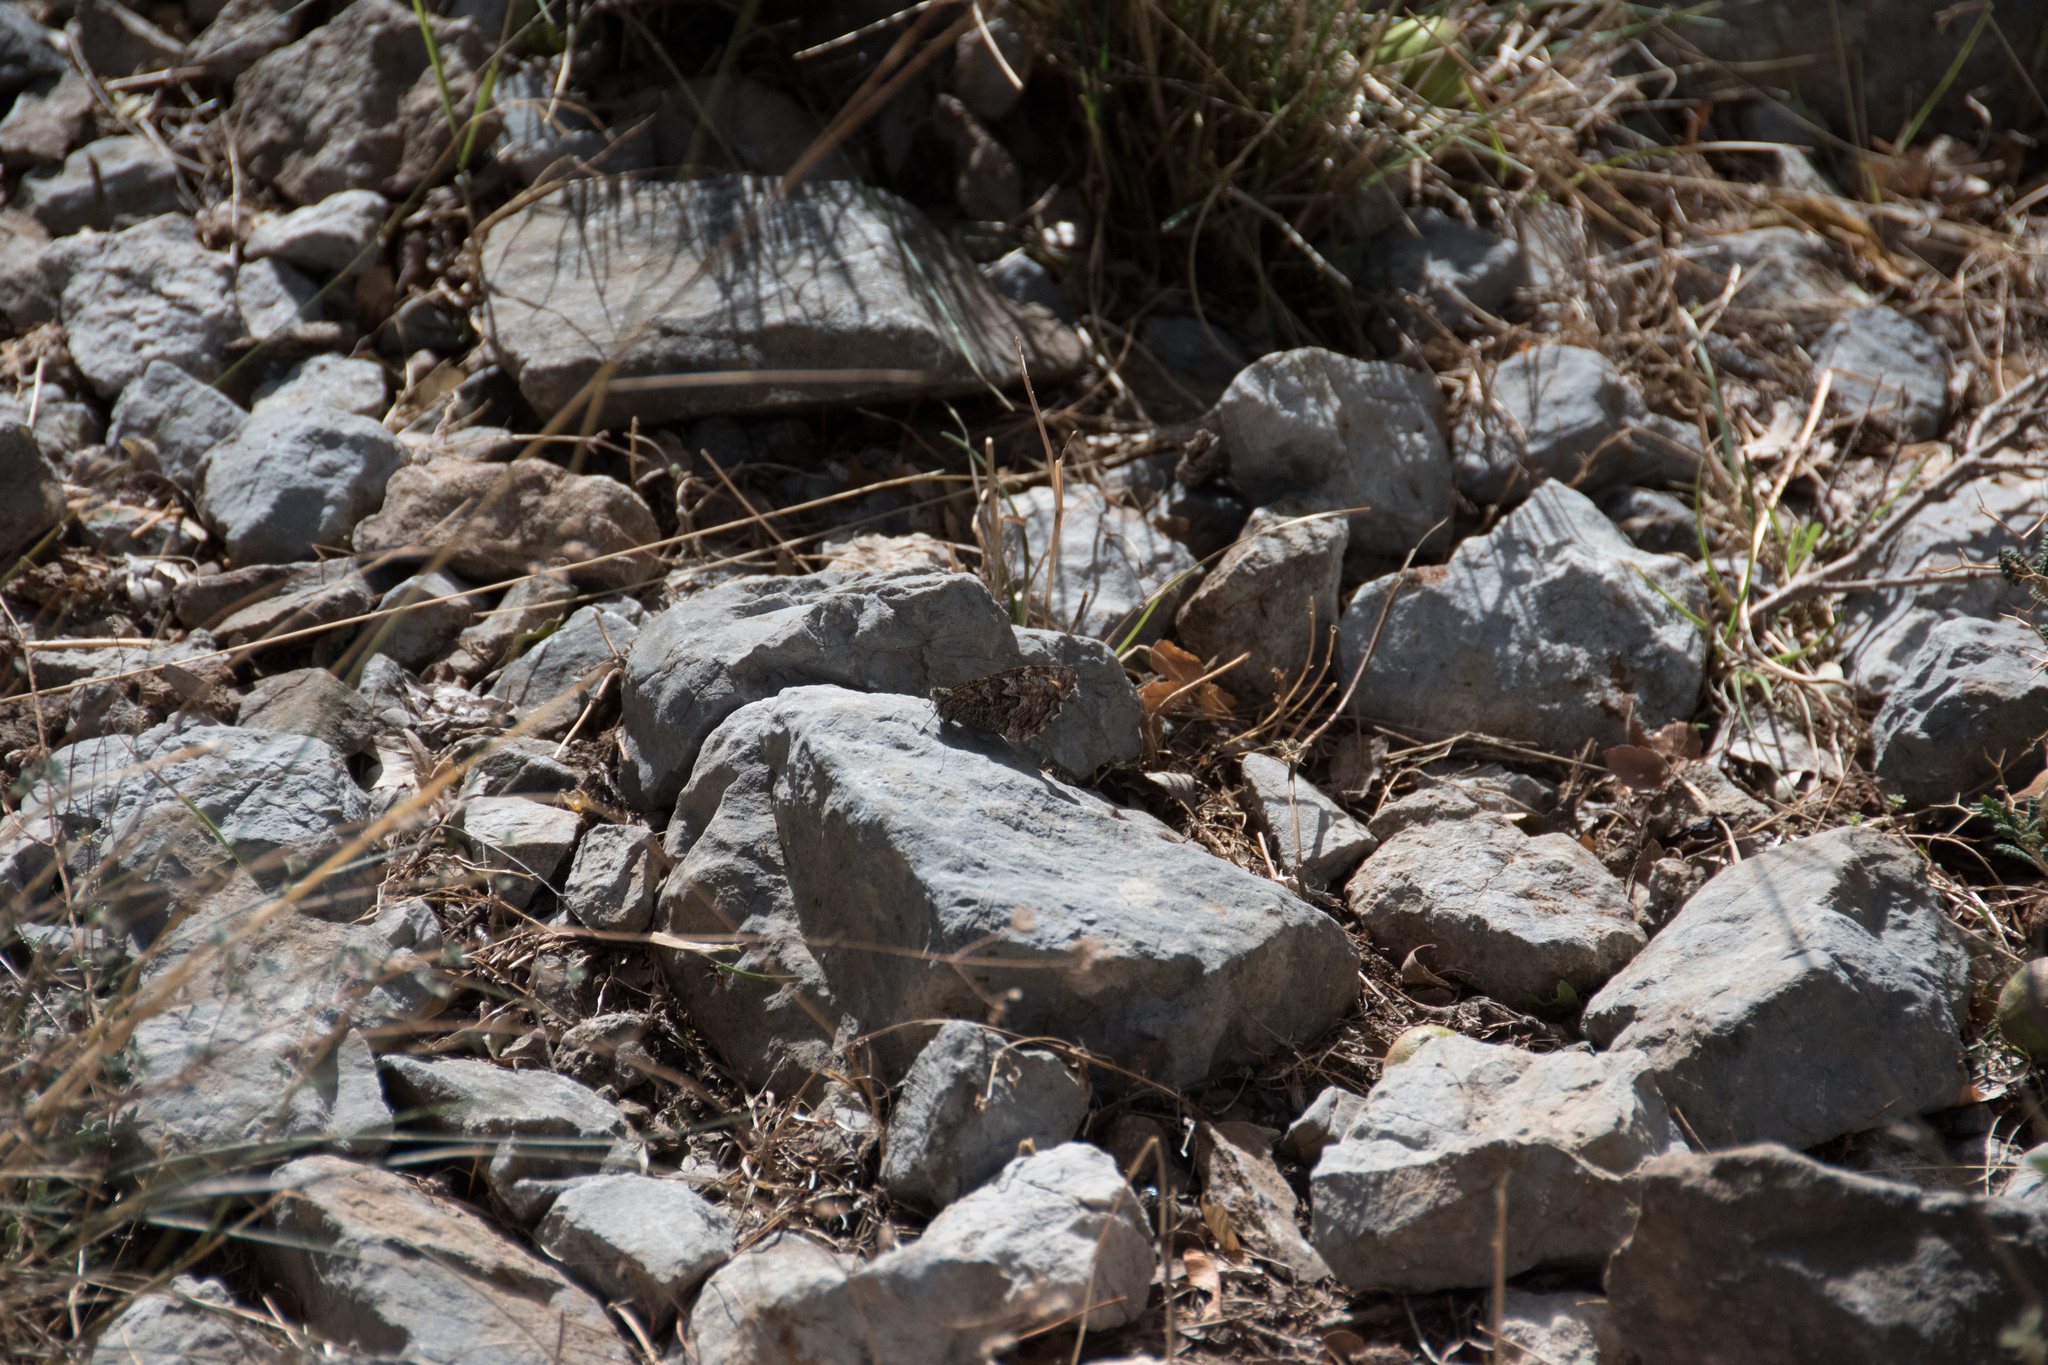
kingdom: Animalia
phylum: Arthropoda
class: Insecta
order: Lepidoptera
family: Nymphalidae
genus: Hipparchia
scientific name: Hipparchia cretica
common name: Cretan grayling
